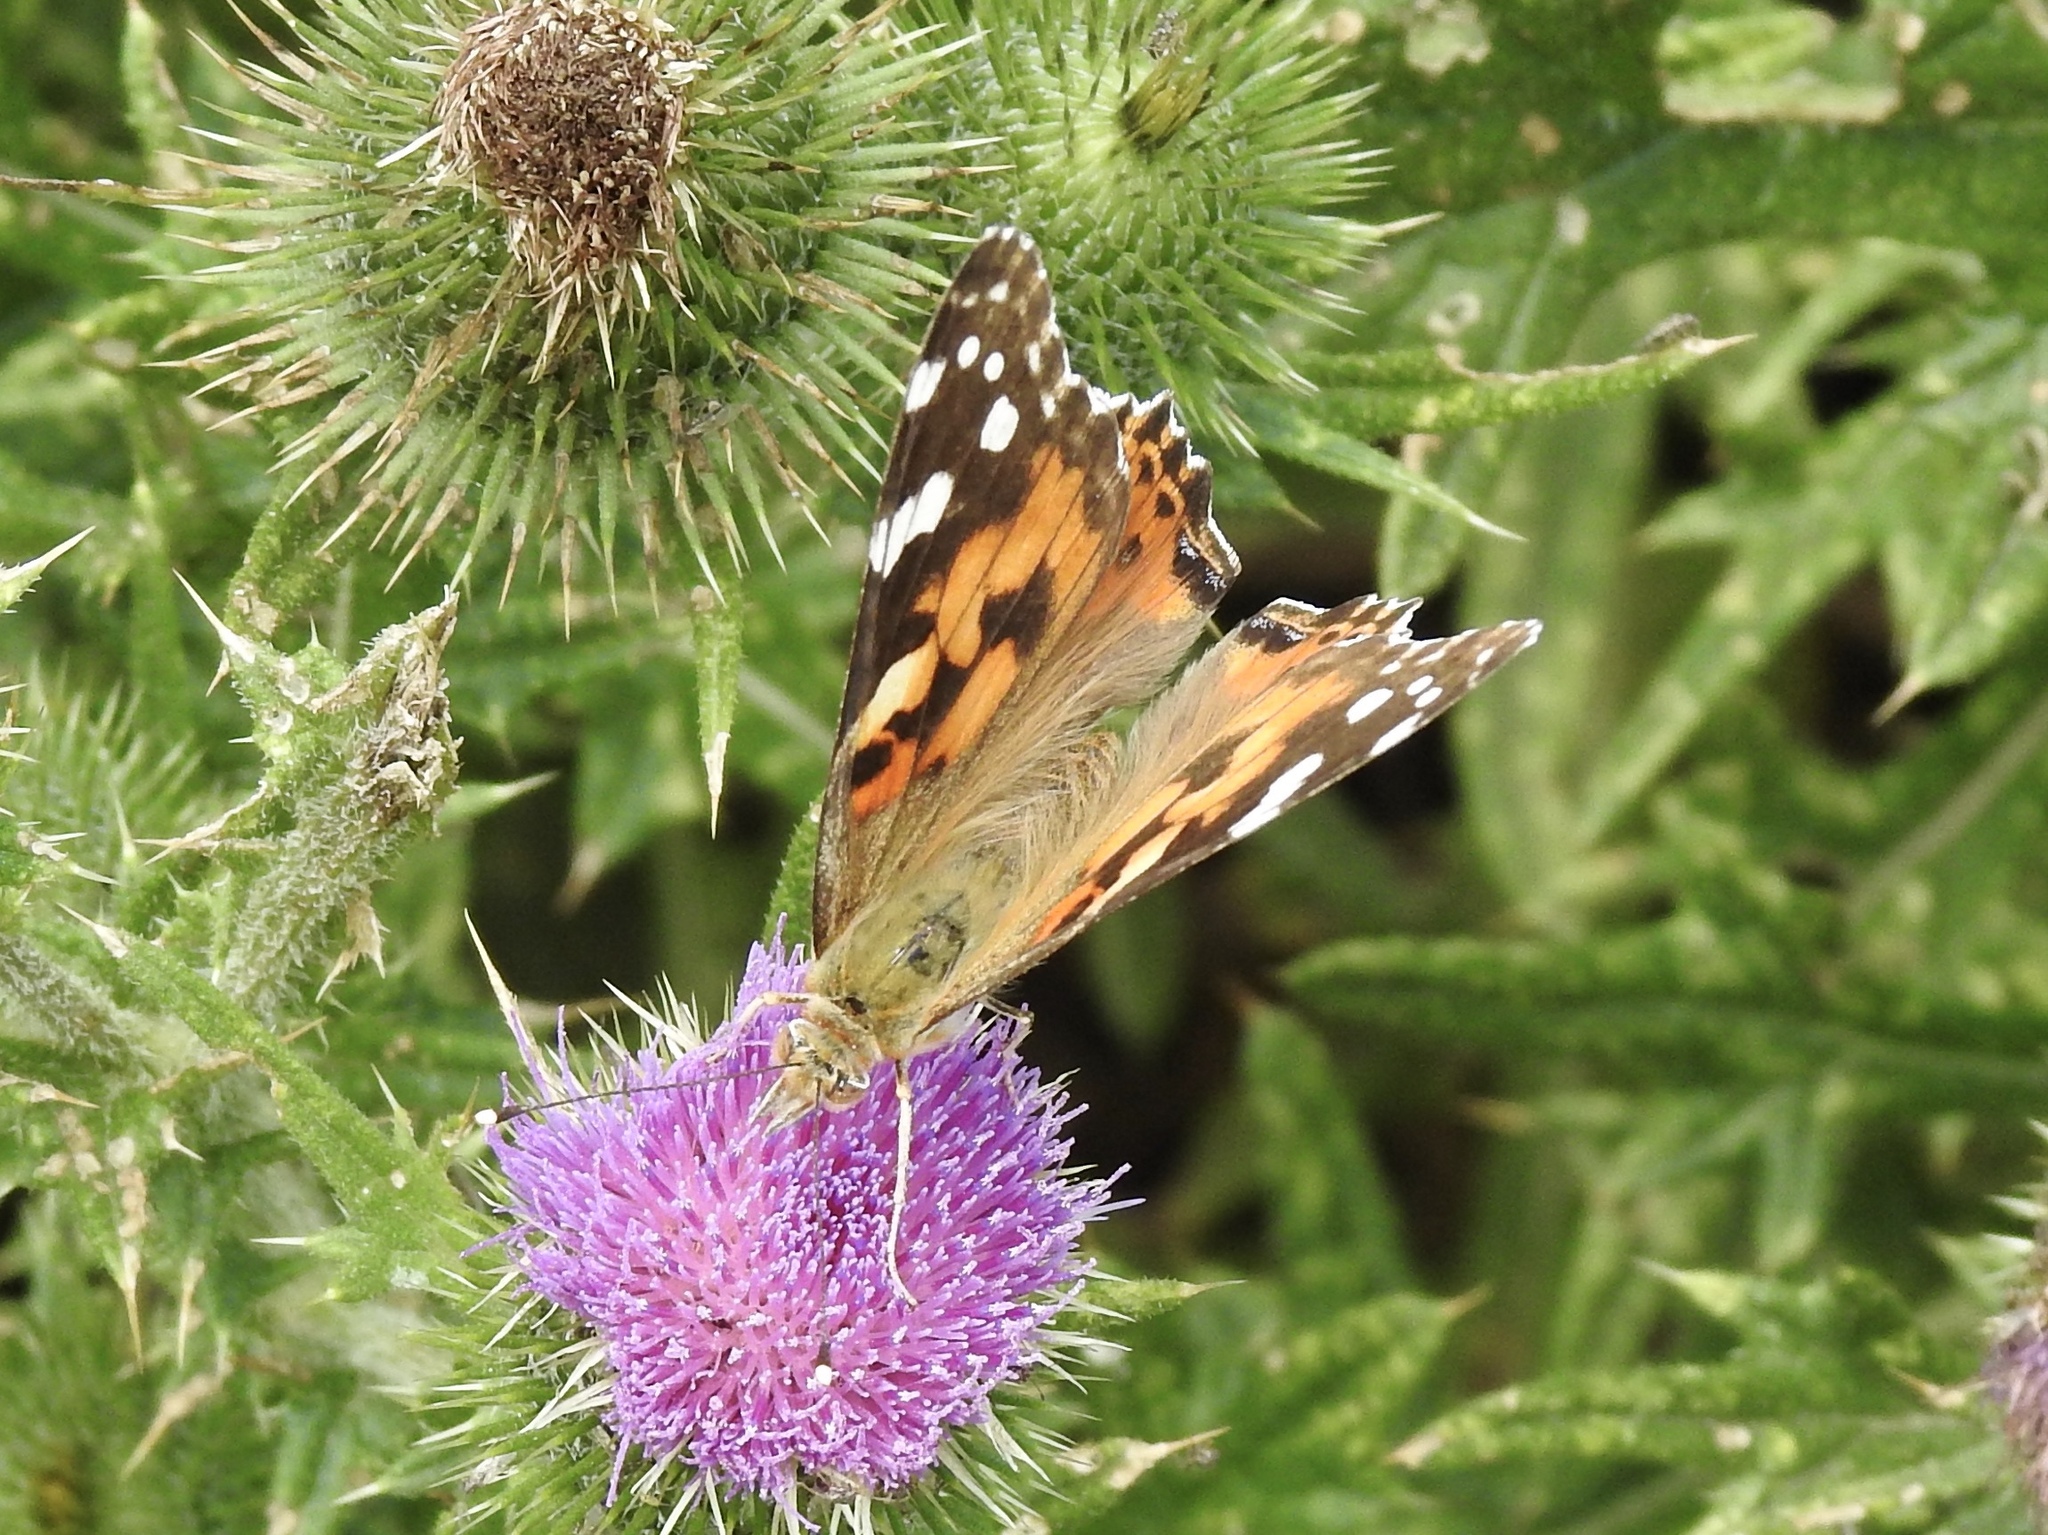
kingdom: Animalia
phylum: Arthropoda
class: Insecta
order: Lepidoptera
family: Nymphalidae
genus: Vanessa
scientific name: Vanessa cardui
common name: Painted lady
